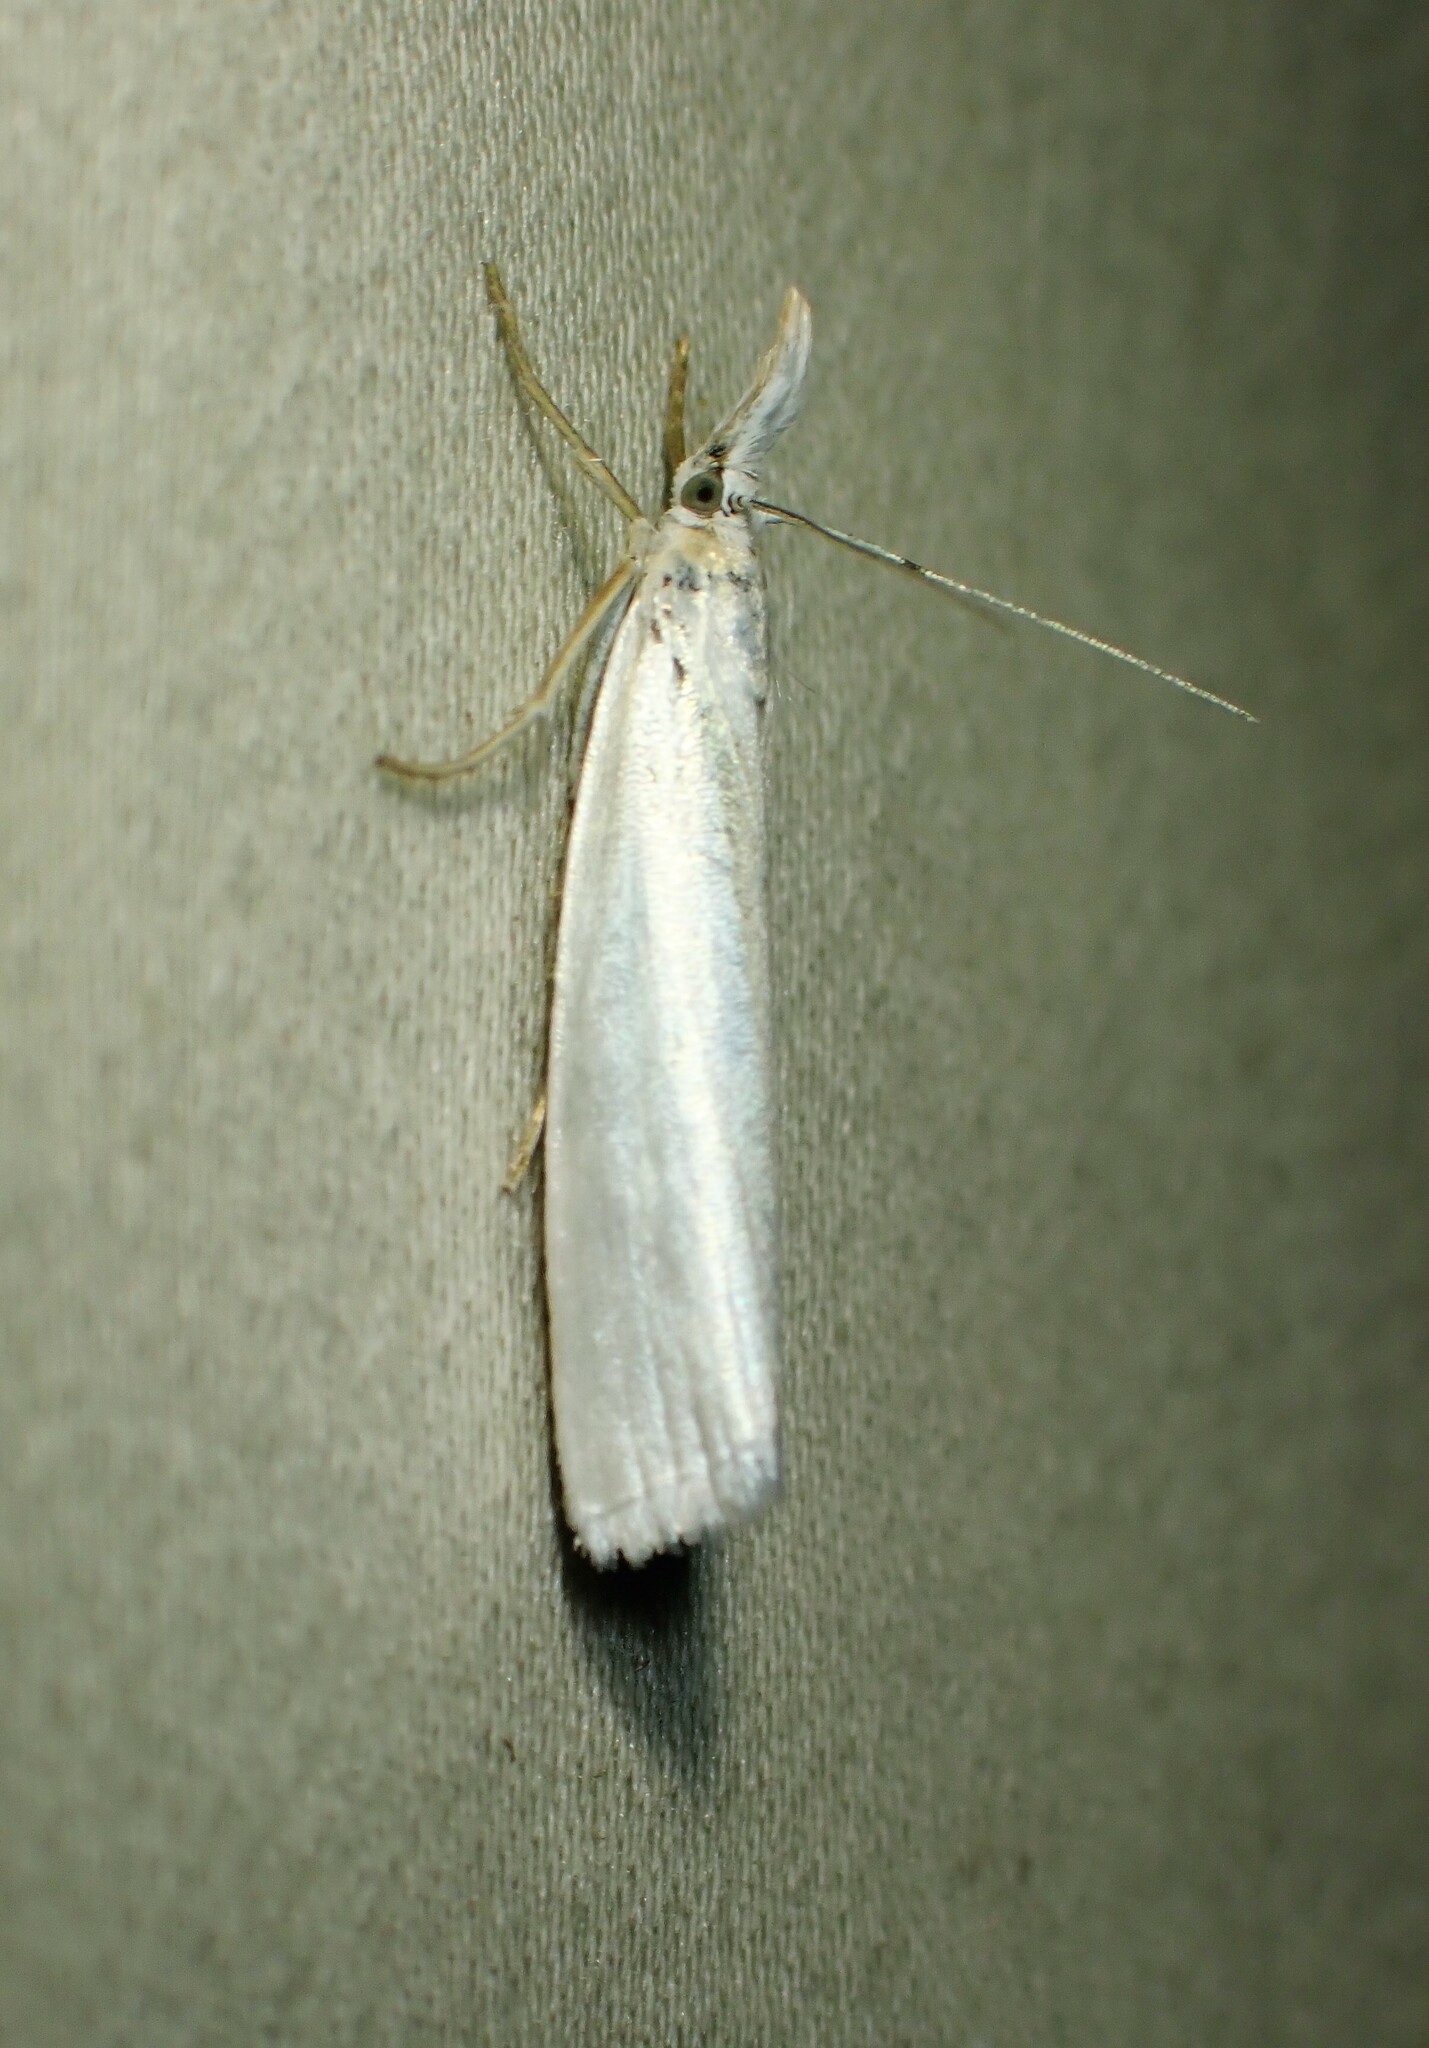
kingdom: Animalia
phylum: Arthropoda
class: Insecta
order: Lepidoptera
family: Crambidae
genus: Crambus
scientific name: Crambus perlellus
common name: Yellow satin veneer
